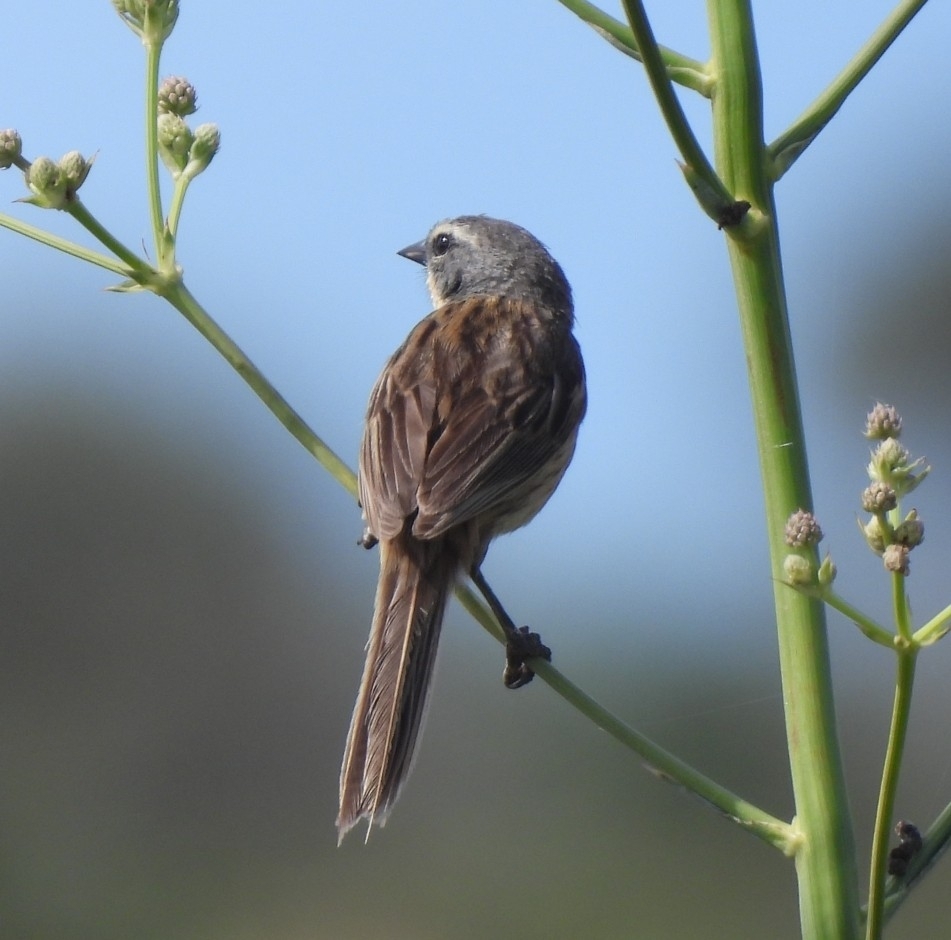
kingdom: Animalia
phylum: Chordata
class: Aves
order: Passeriformes
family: Thraupidae
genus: Donacospiza
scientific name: Donacospiza albifrons
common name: Long-tailed reed finch
